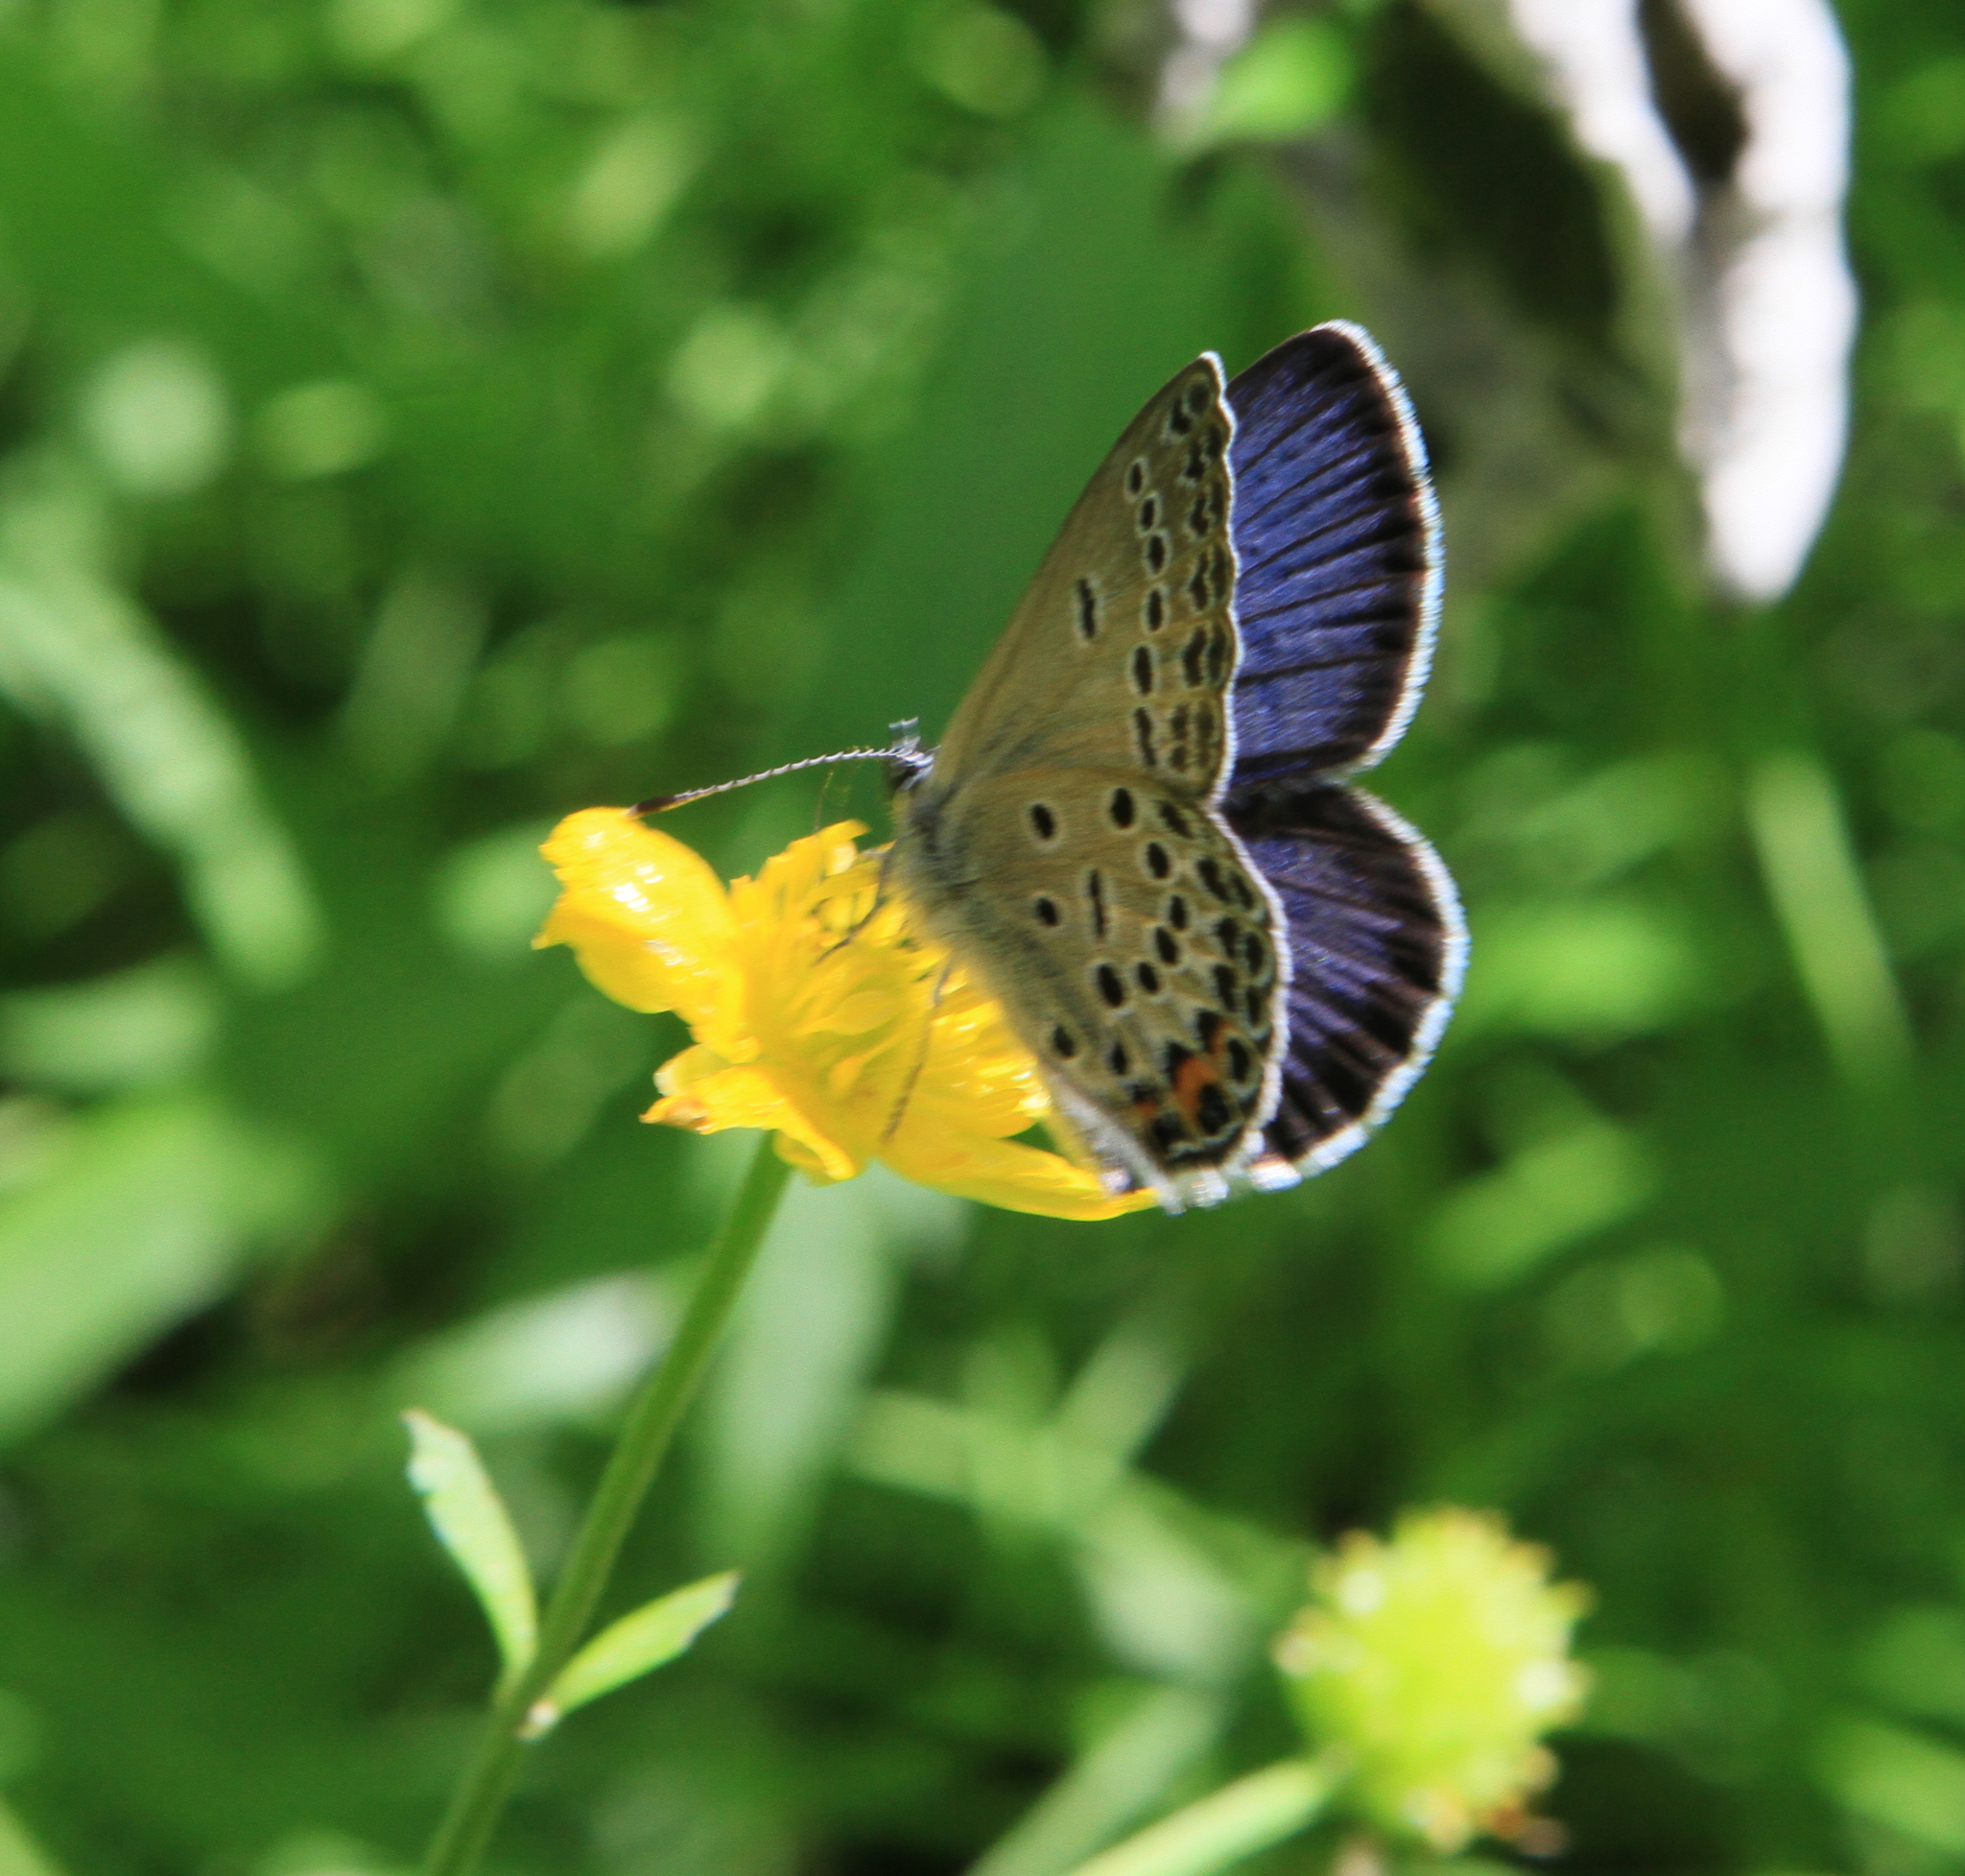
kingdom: Animalia
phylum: Arthropoda
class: Insecta
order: Lepidoptera
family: Lycaenidae
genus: Vacciniina
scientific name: Vacciniina optilete
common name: Cranberry blue
